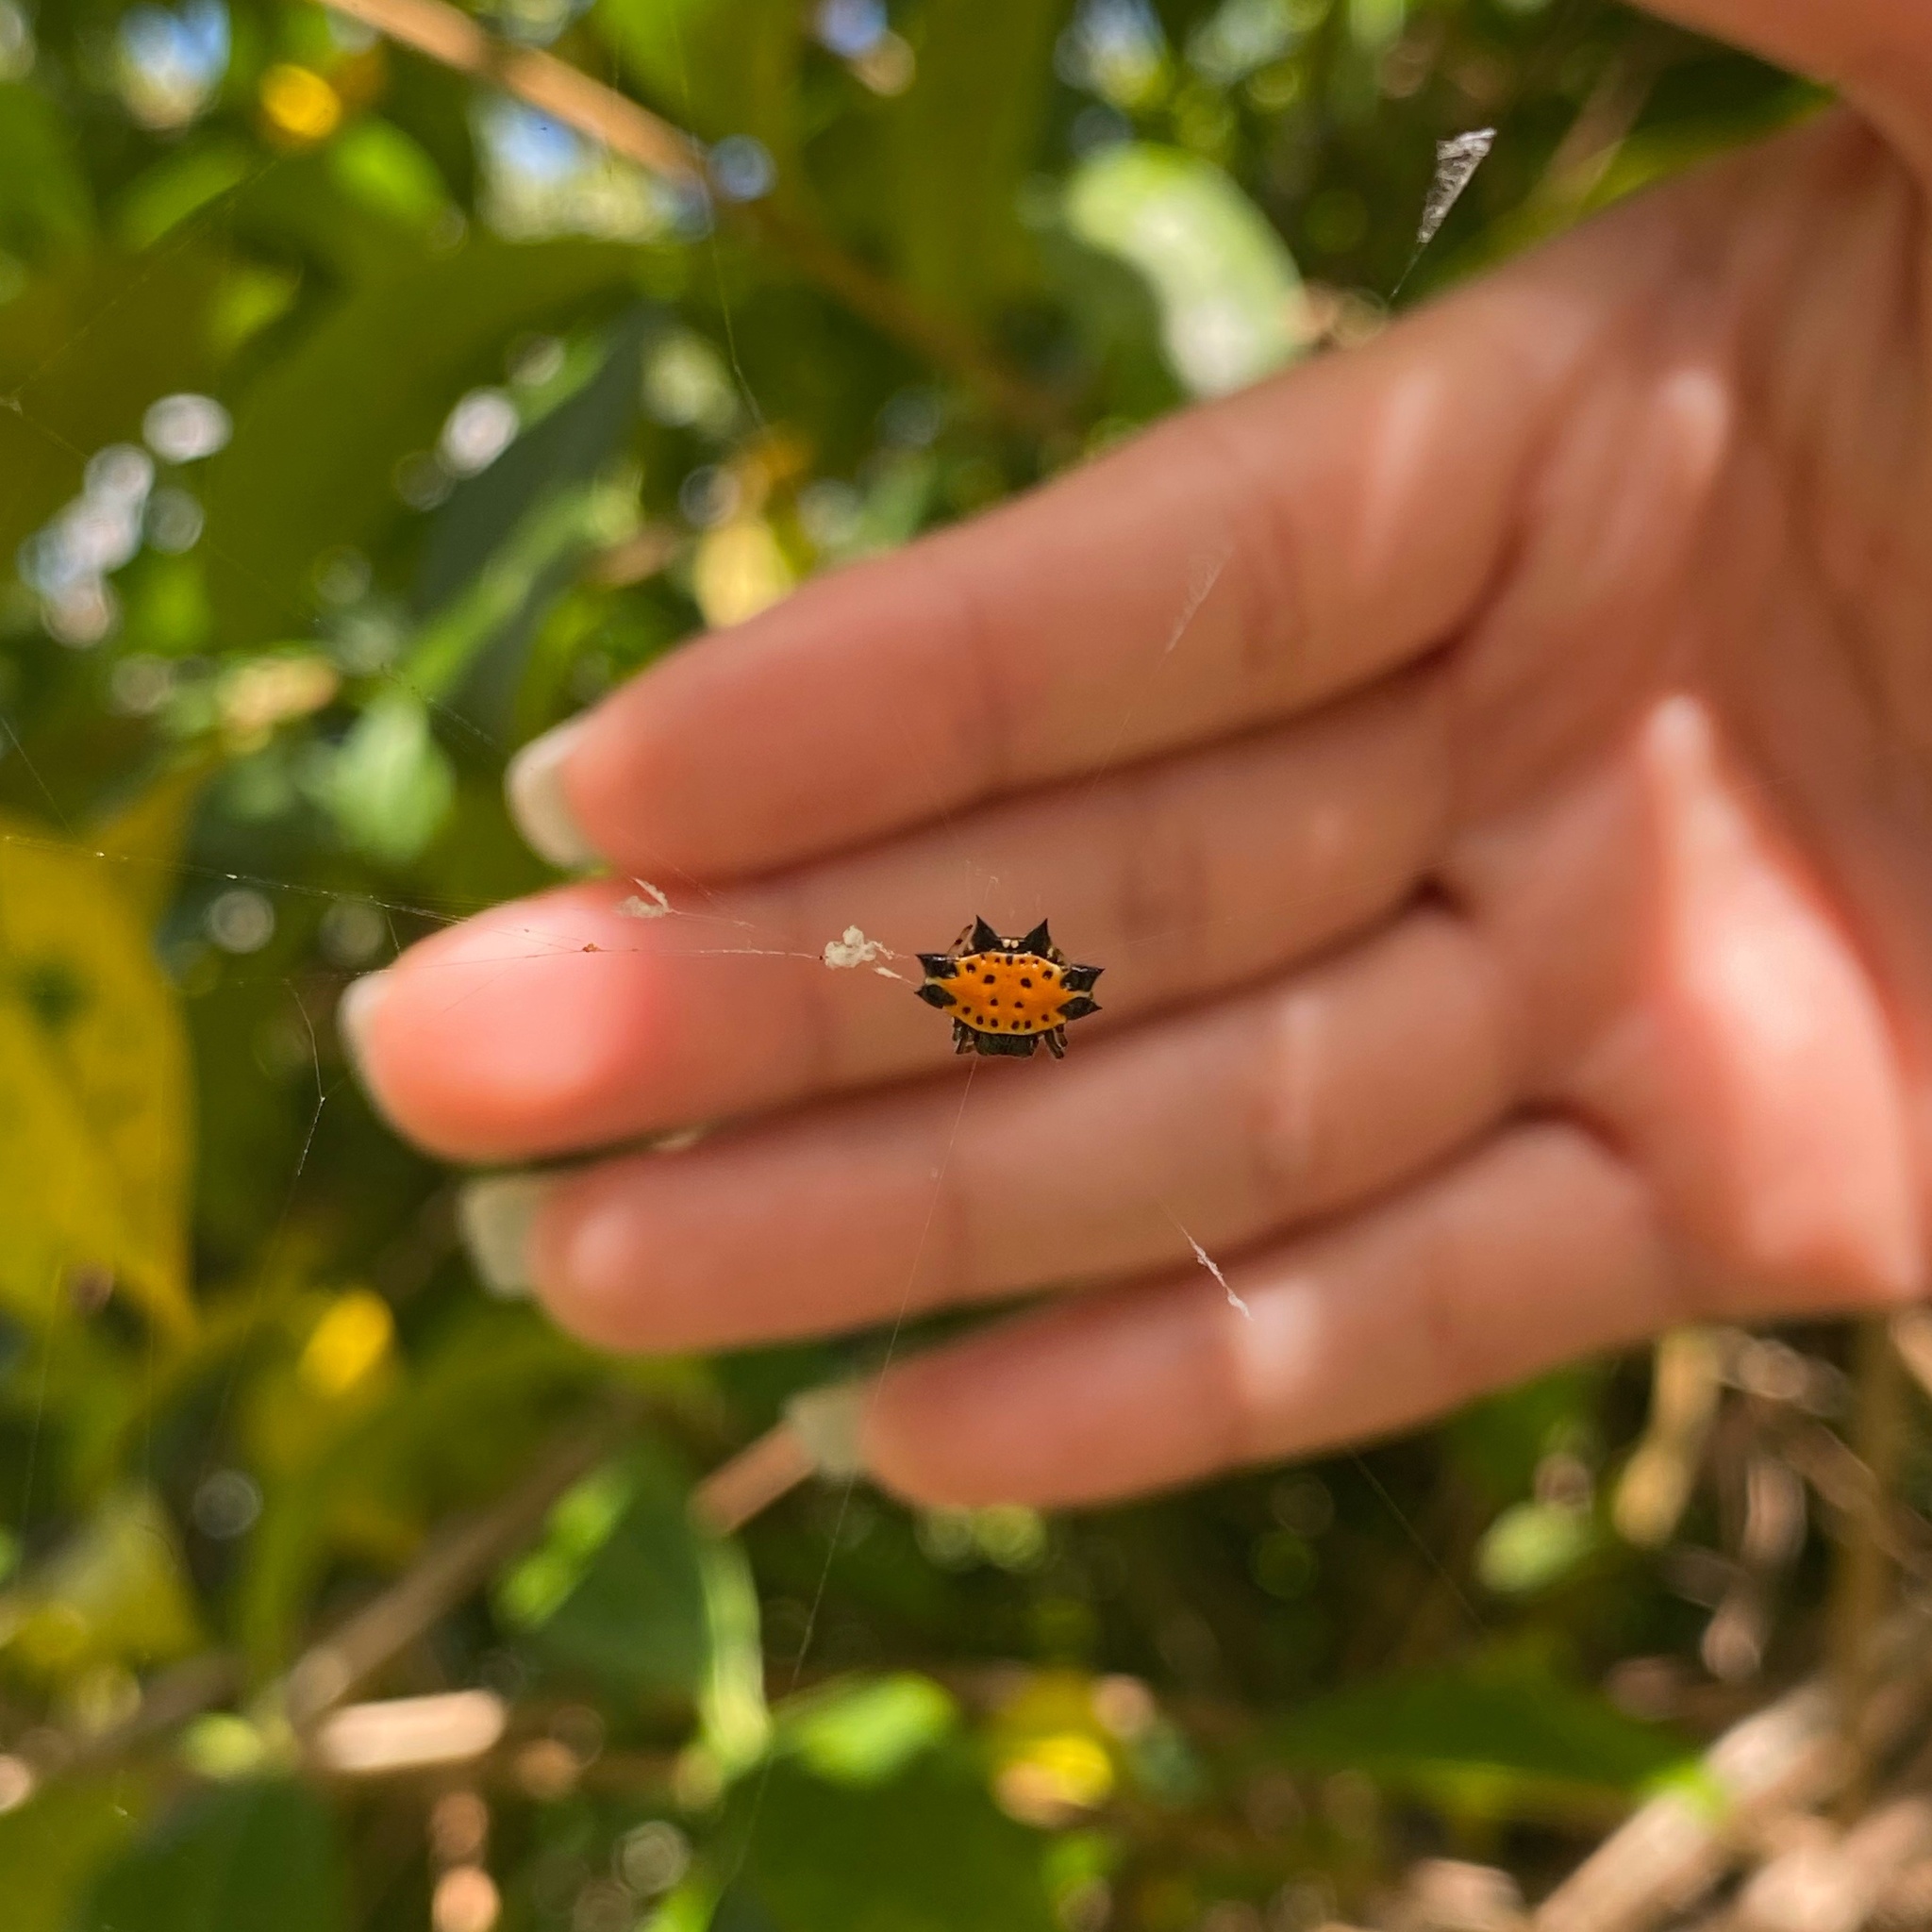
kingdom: Animalia
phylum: Arthropoda
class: Arachnida
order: Araneae
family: Araneidae
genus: Gasteracantha
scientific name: Gasteracantha cancriformis
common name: Orb weavers
